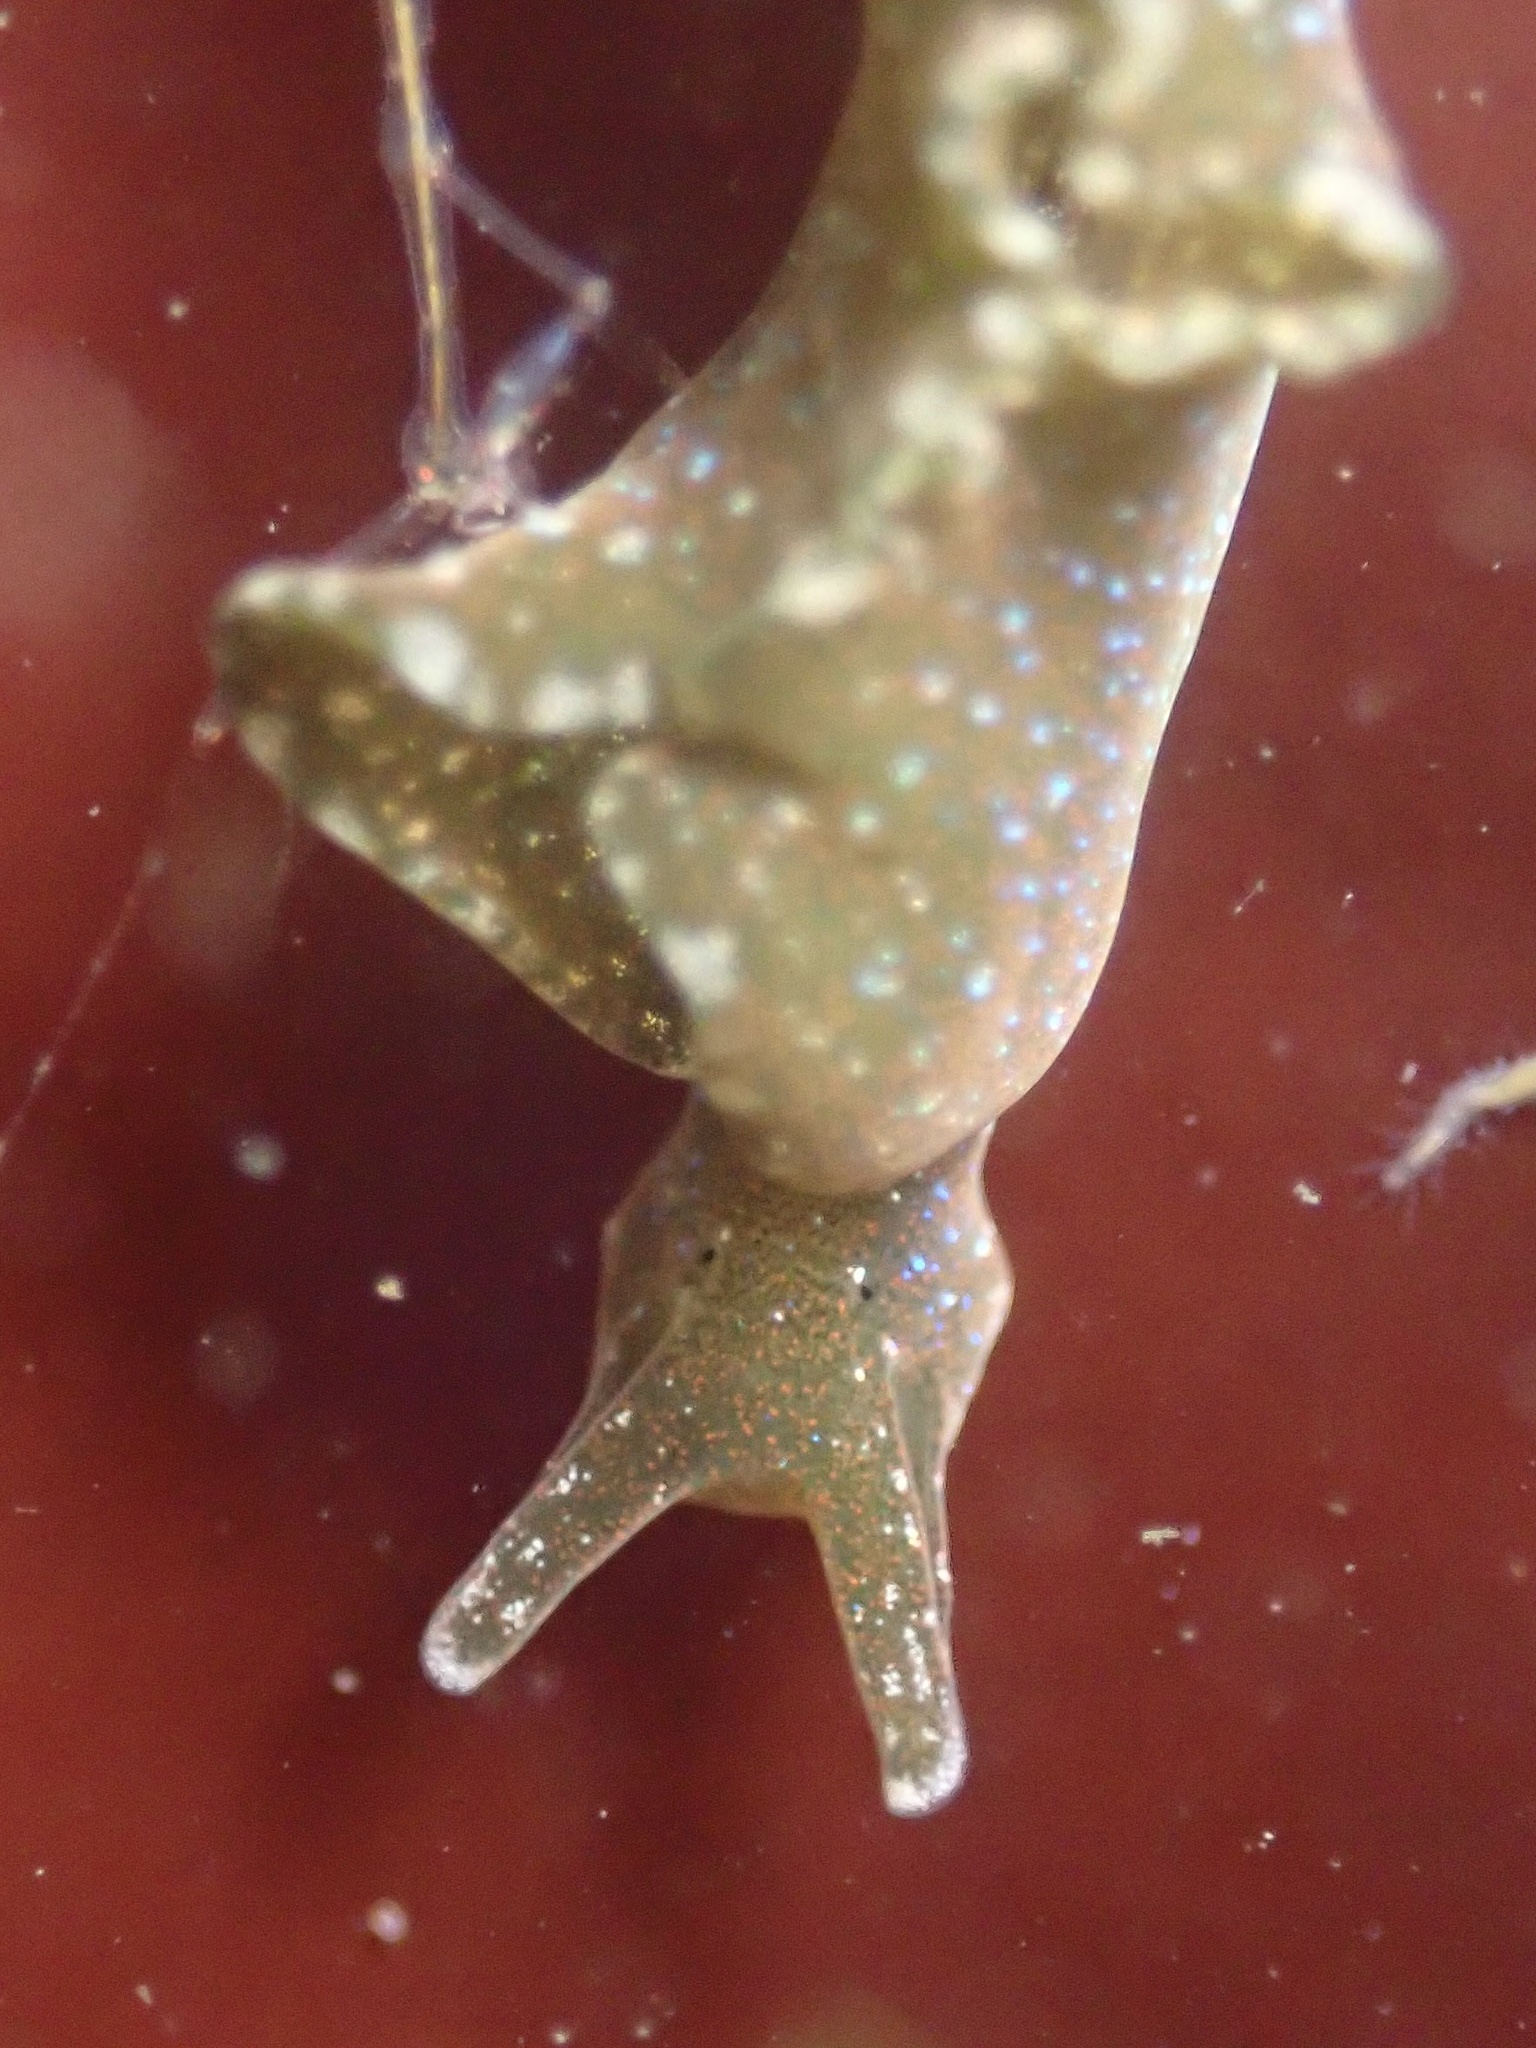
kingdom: Animalia
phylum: Mollusca
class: Gastropoda
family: Plakobranchidae
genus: Elysia
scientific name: Elysia hedgpethi
